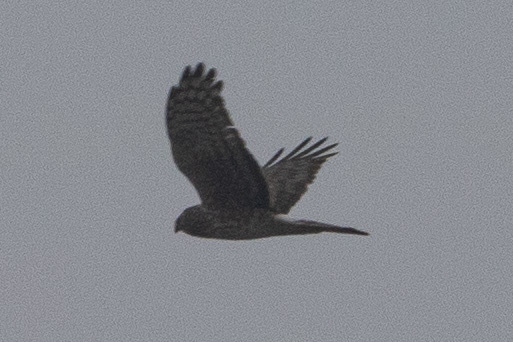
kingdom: Animalia
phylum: Chordata
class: Aves
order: Accipitriformes
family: Accipitridae
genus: Circus
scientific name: Circus cyaneus
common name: Hen harrier
